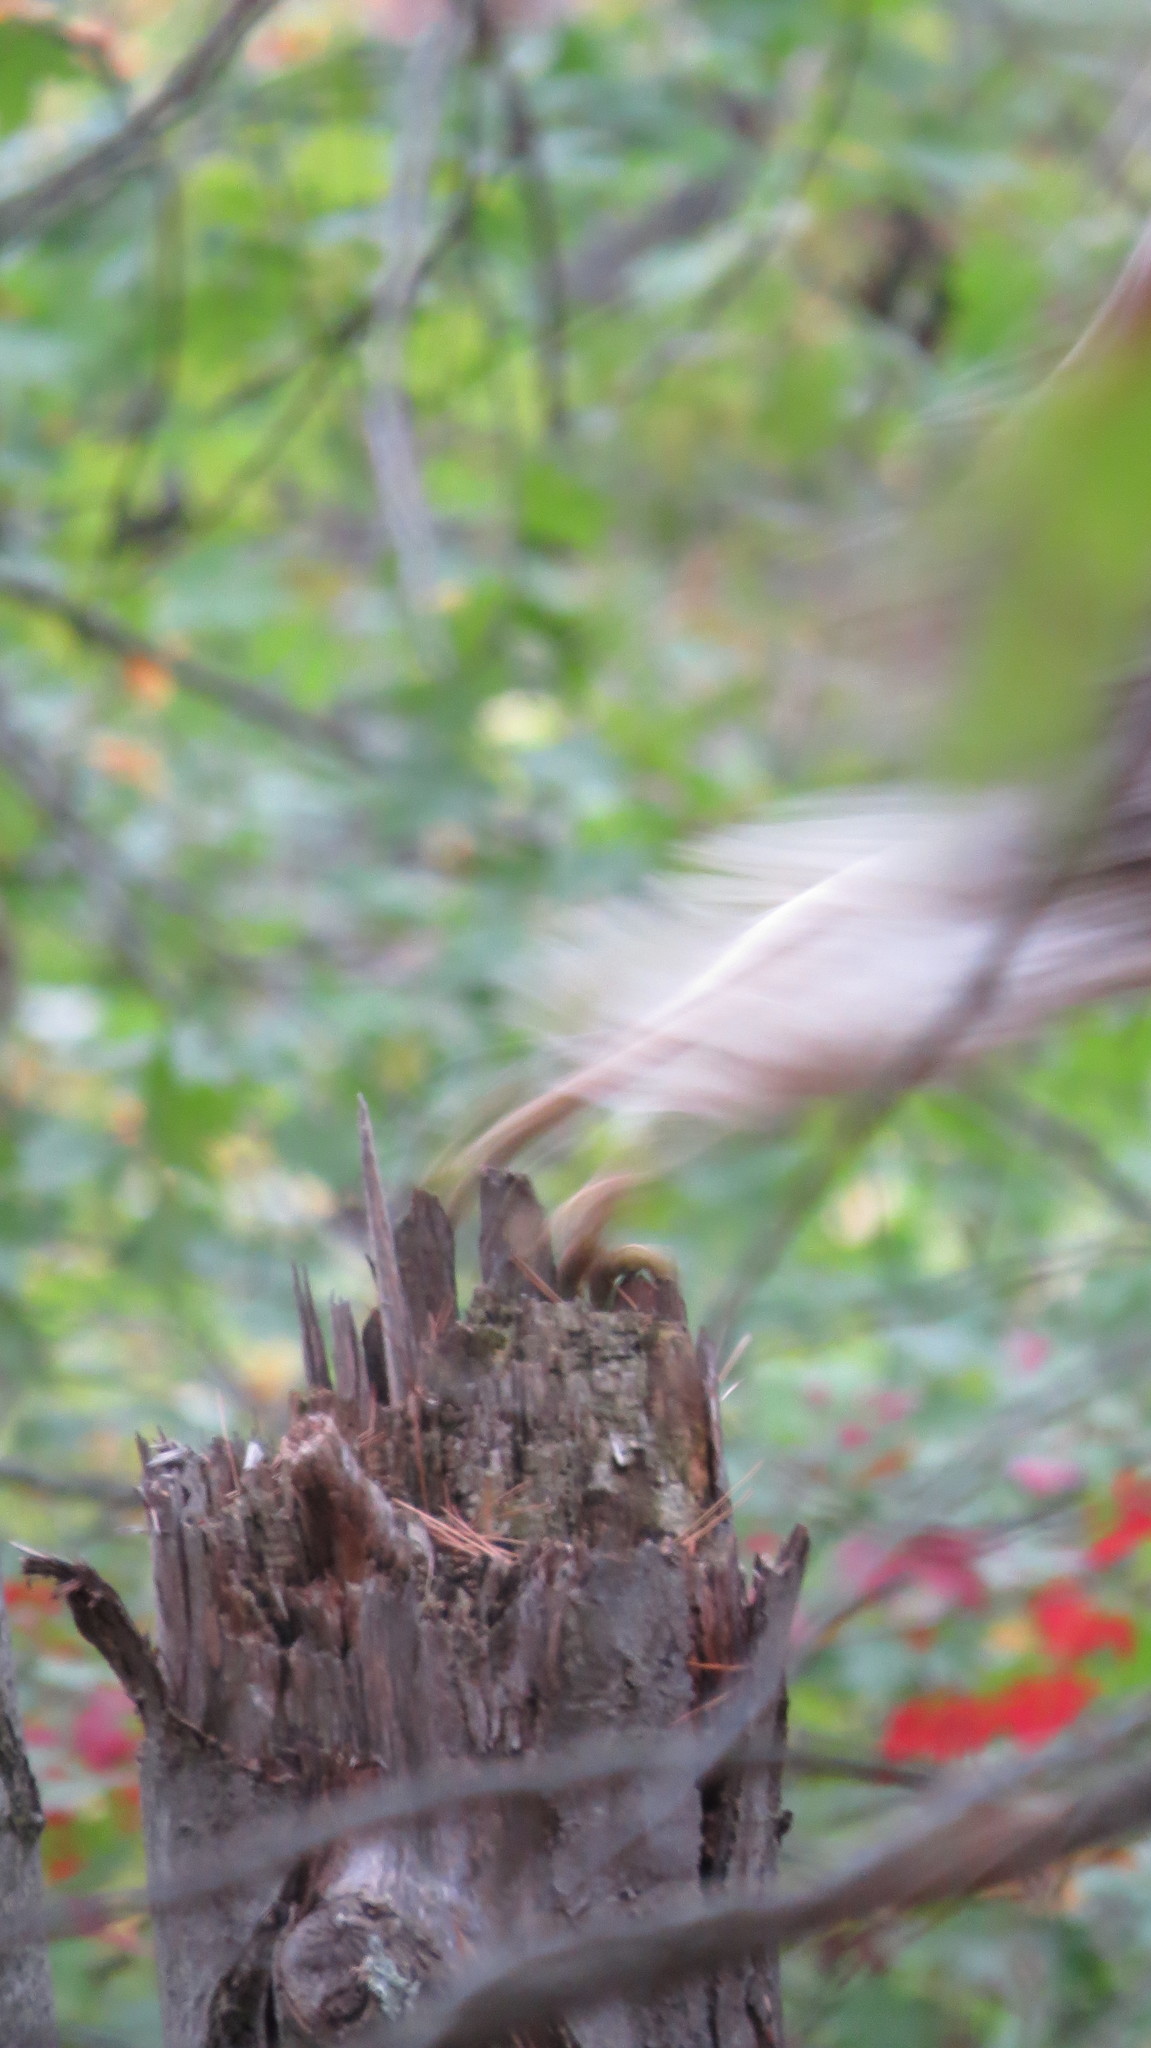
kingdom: Animalia
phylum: Chordata
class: Aves
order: Accipitriformes
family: Accipitridae
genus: Buteo
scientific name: Buteo jamaicensis
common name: Red-tailed hawk
